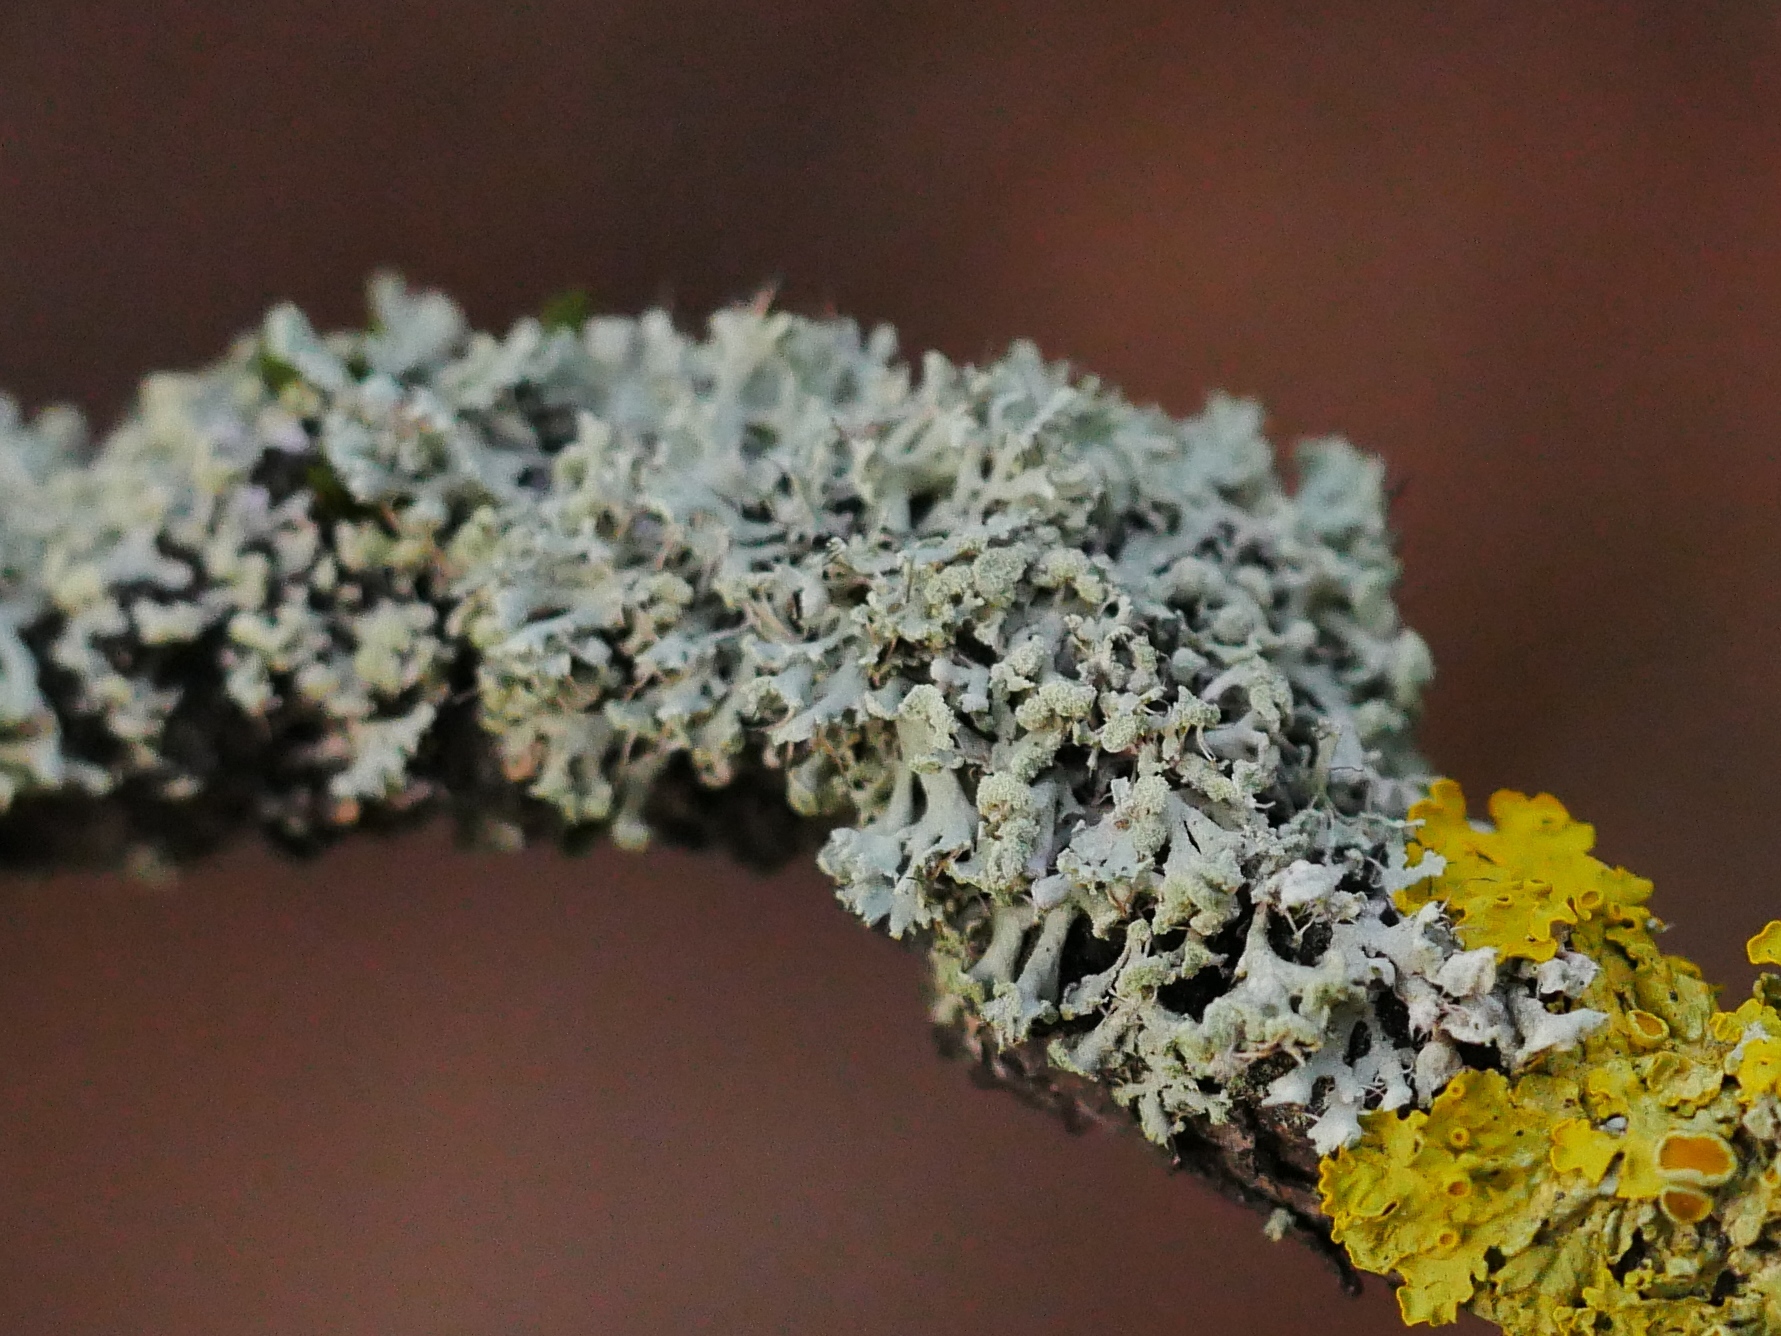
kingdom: Fungi
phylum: Ascomycota
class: Lecanoromycetes
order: Caliciales
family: Physciaceae
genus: Physcia
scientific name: Physcia tenella
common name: Fringed rosette lichen
